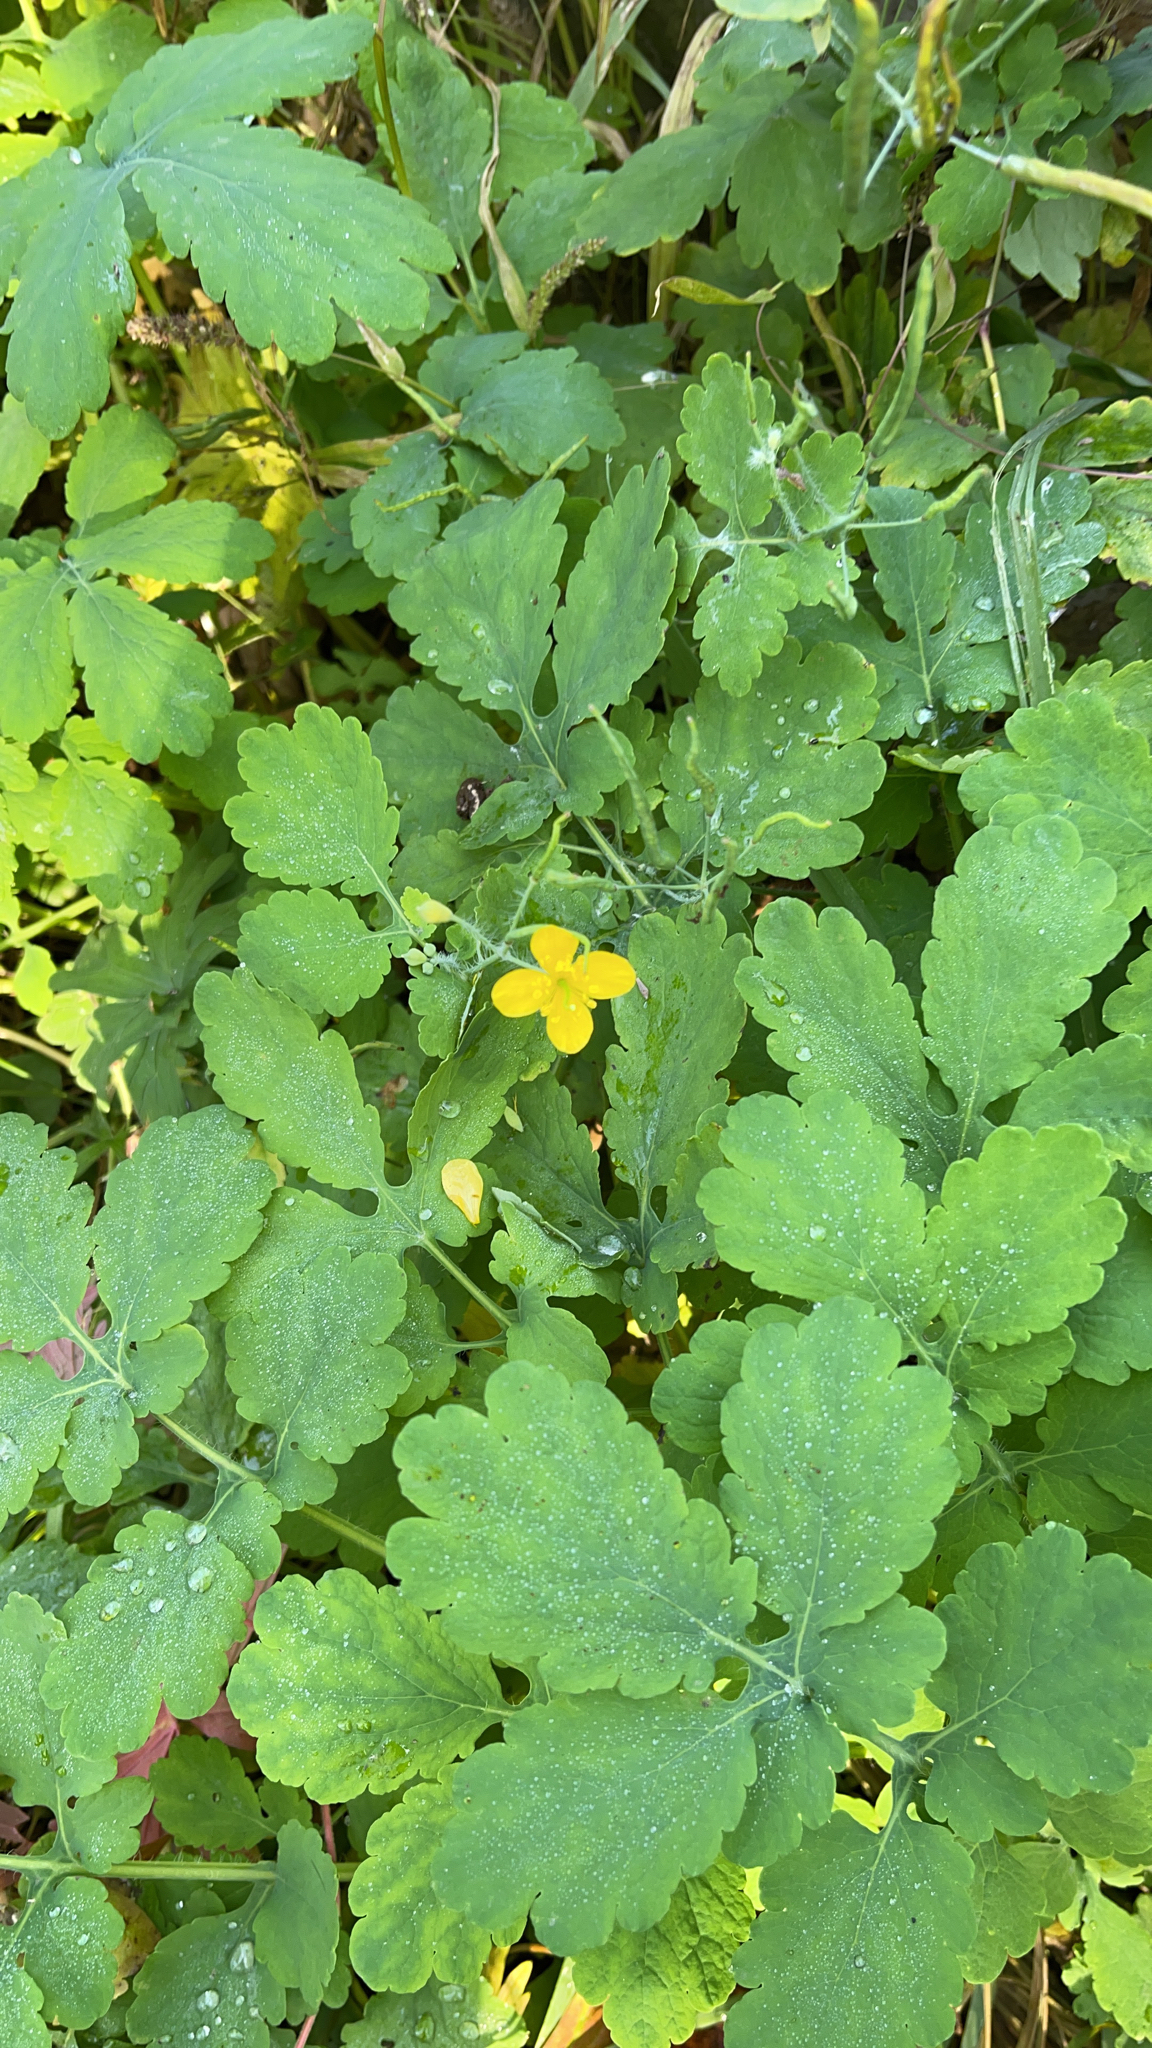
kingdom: Plantae
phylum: Tracheophyta
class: Magnoliopsida
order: Ranunculales
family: Papaveraceae
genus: Chelidonium
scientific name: Chelidonium majus
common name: Greater celandine
